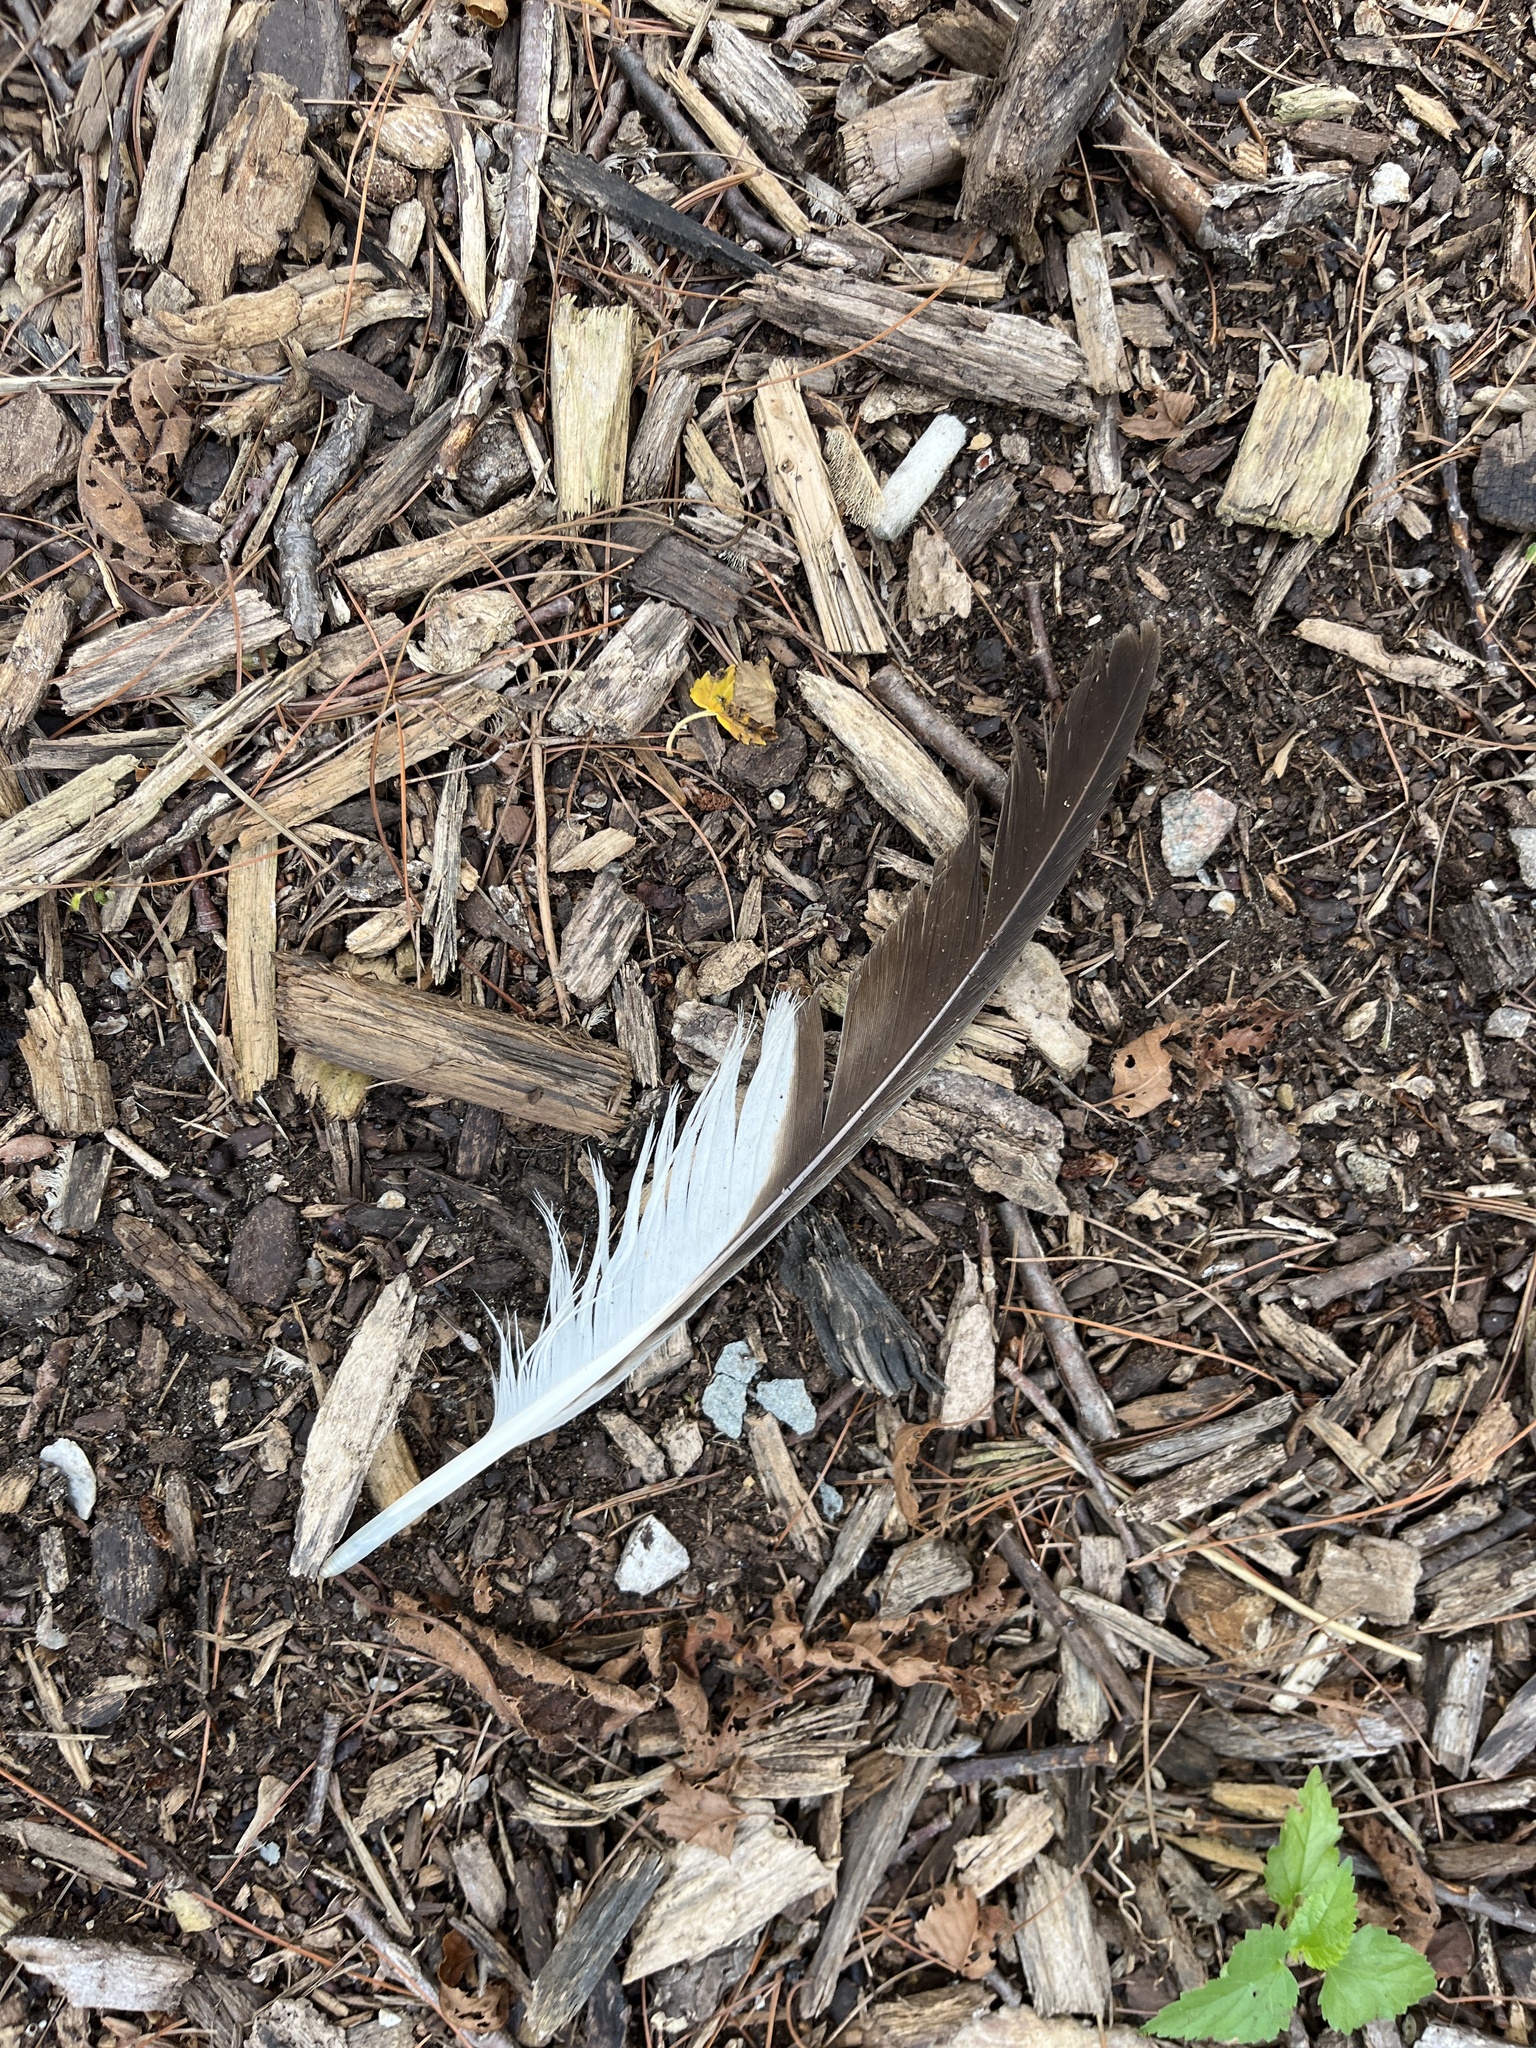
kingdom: Animalia
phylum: Chordata
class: Aves
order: Accipitriformes
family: Accipitridae
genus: Buteo
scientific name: Buteo jamaicensis
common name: Red-tailed hawk
